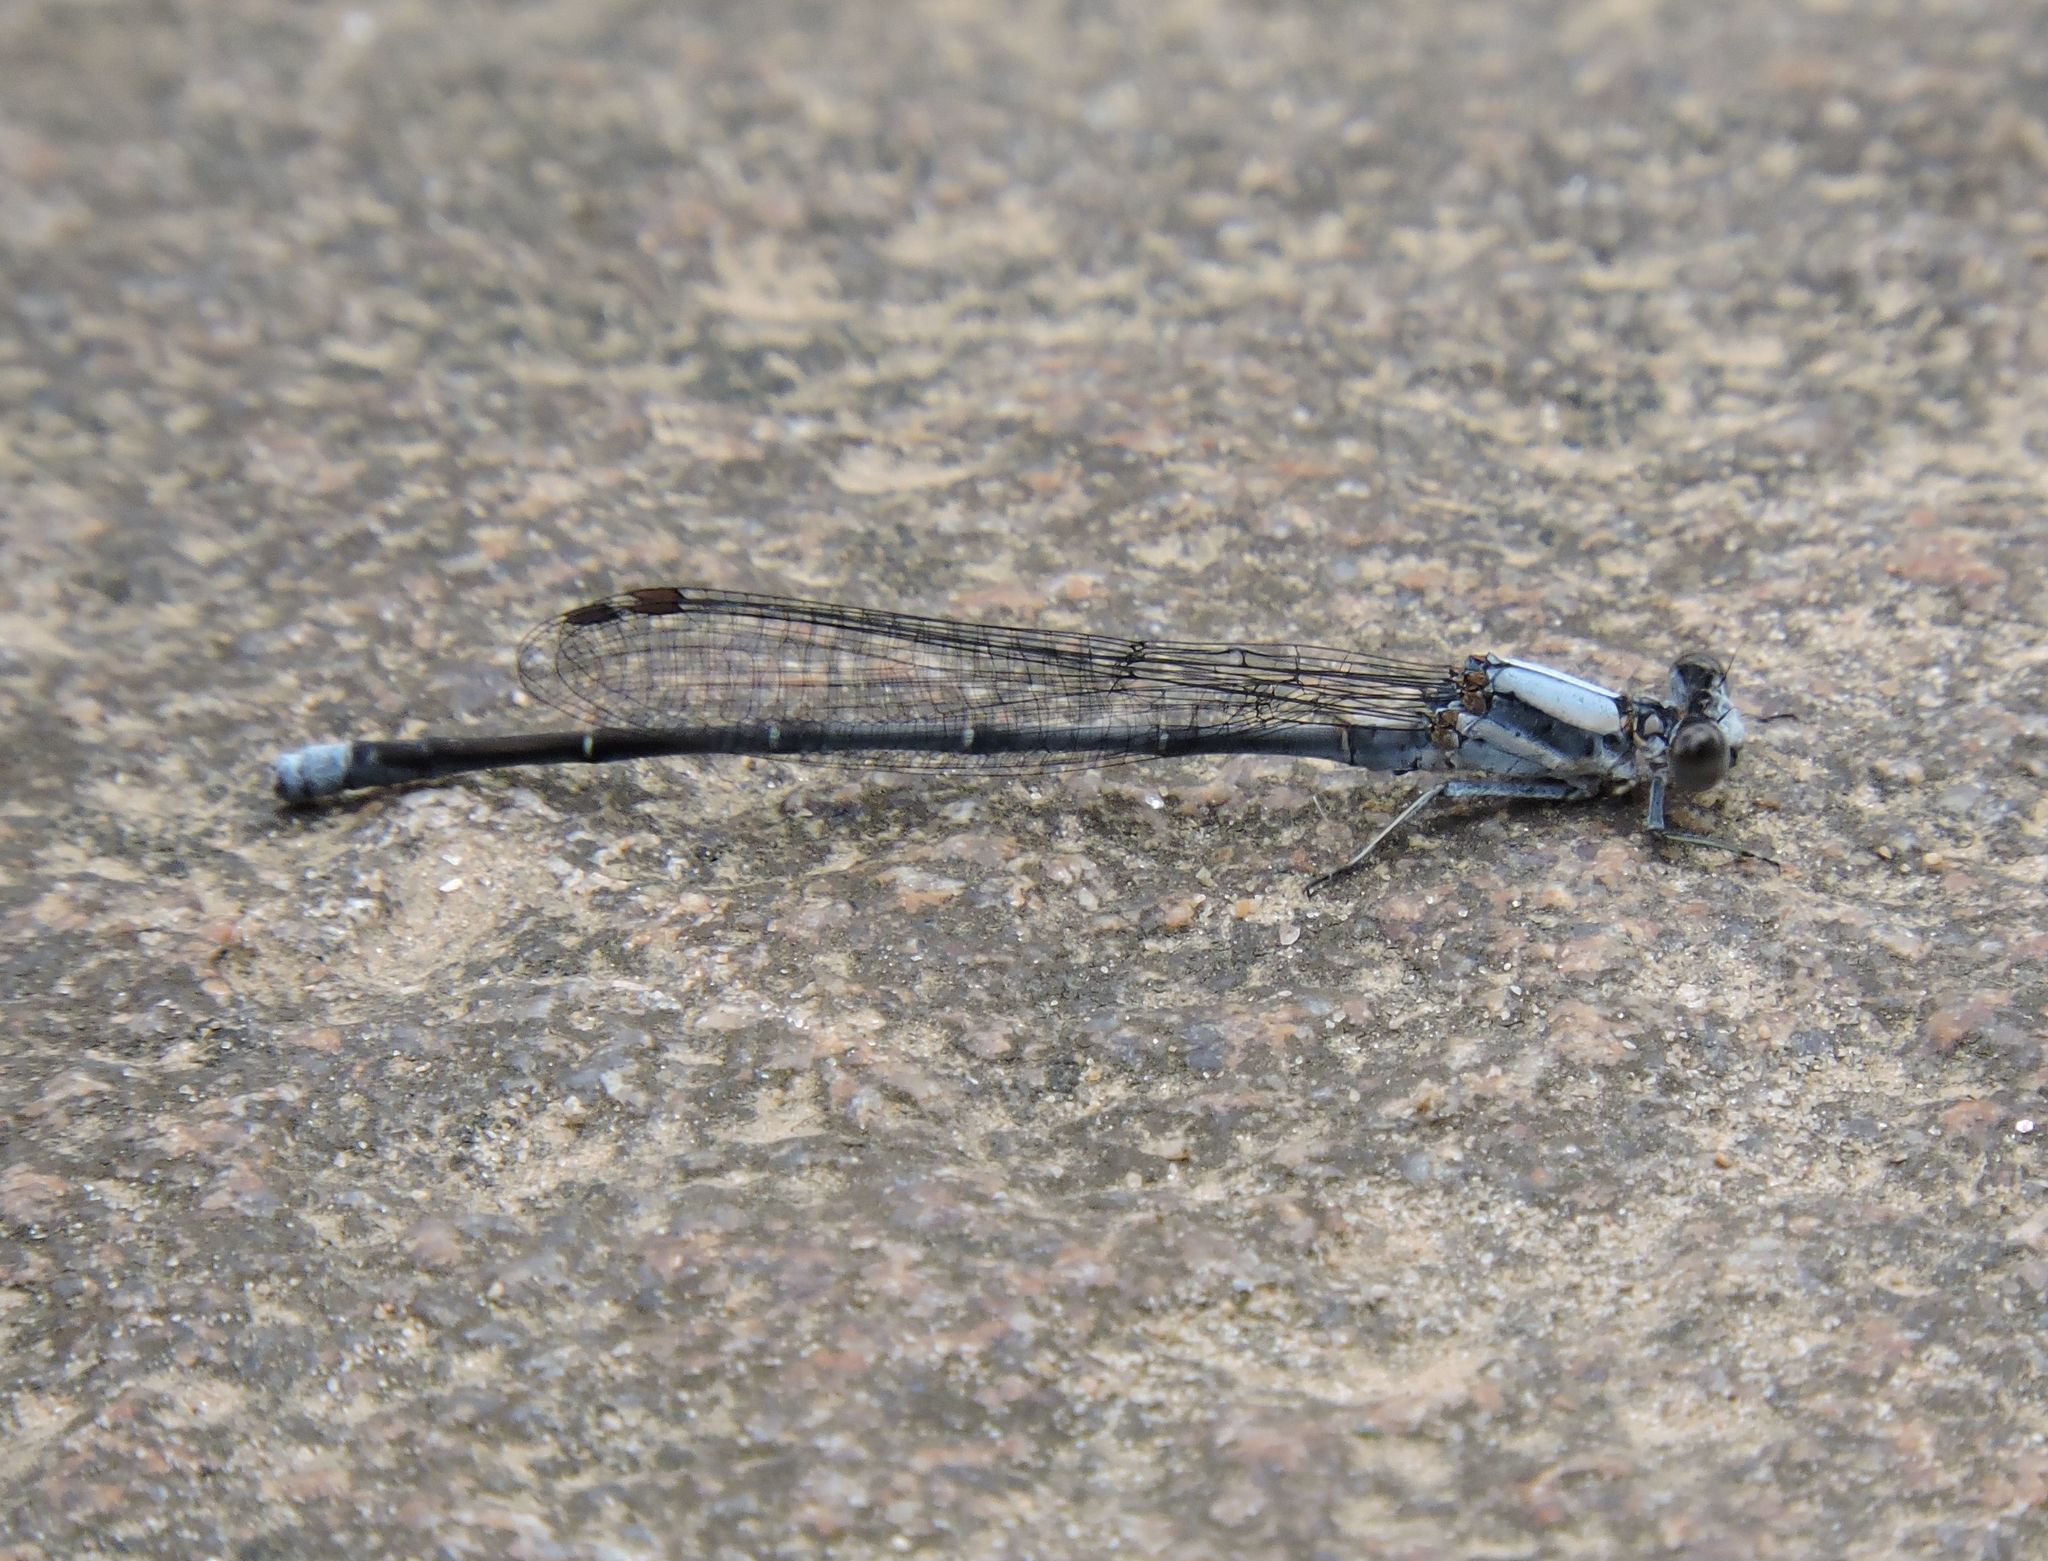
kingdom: Animalia
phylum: Arthropoda
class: Insecta
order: Odonata
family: Coenagrionidae
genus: Argia
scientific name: Argia moesta
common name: Powdered dancer
